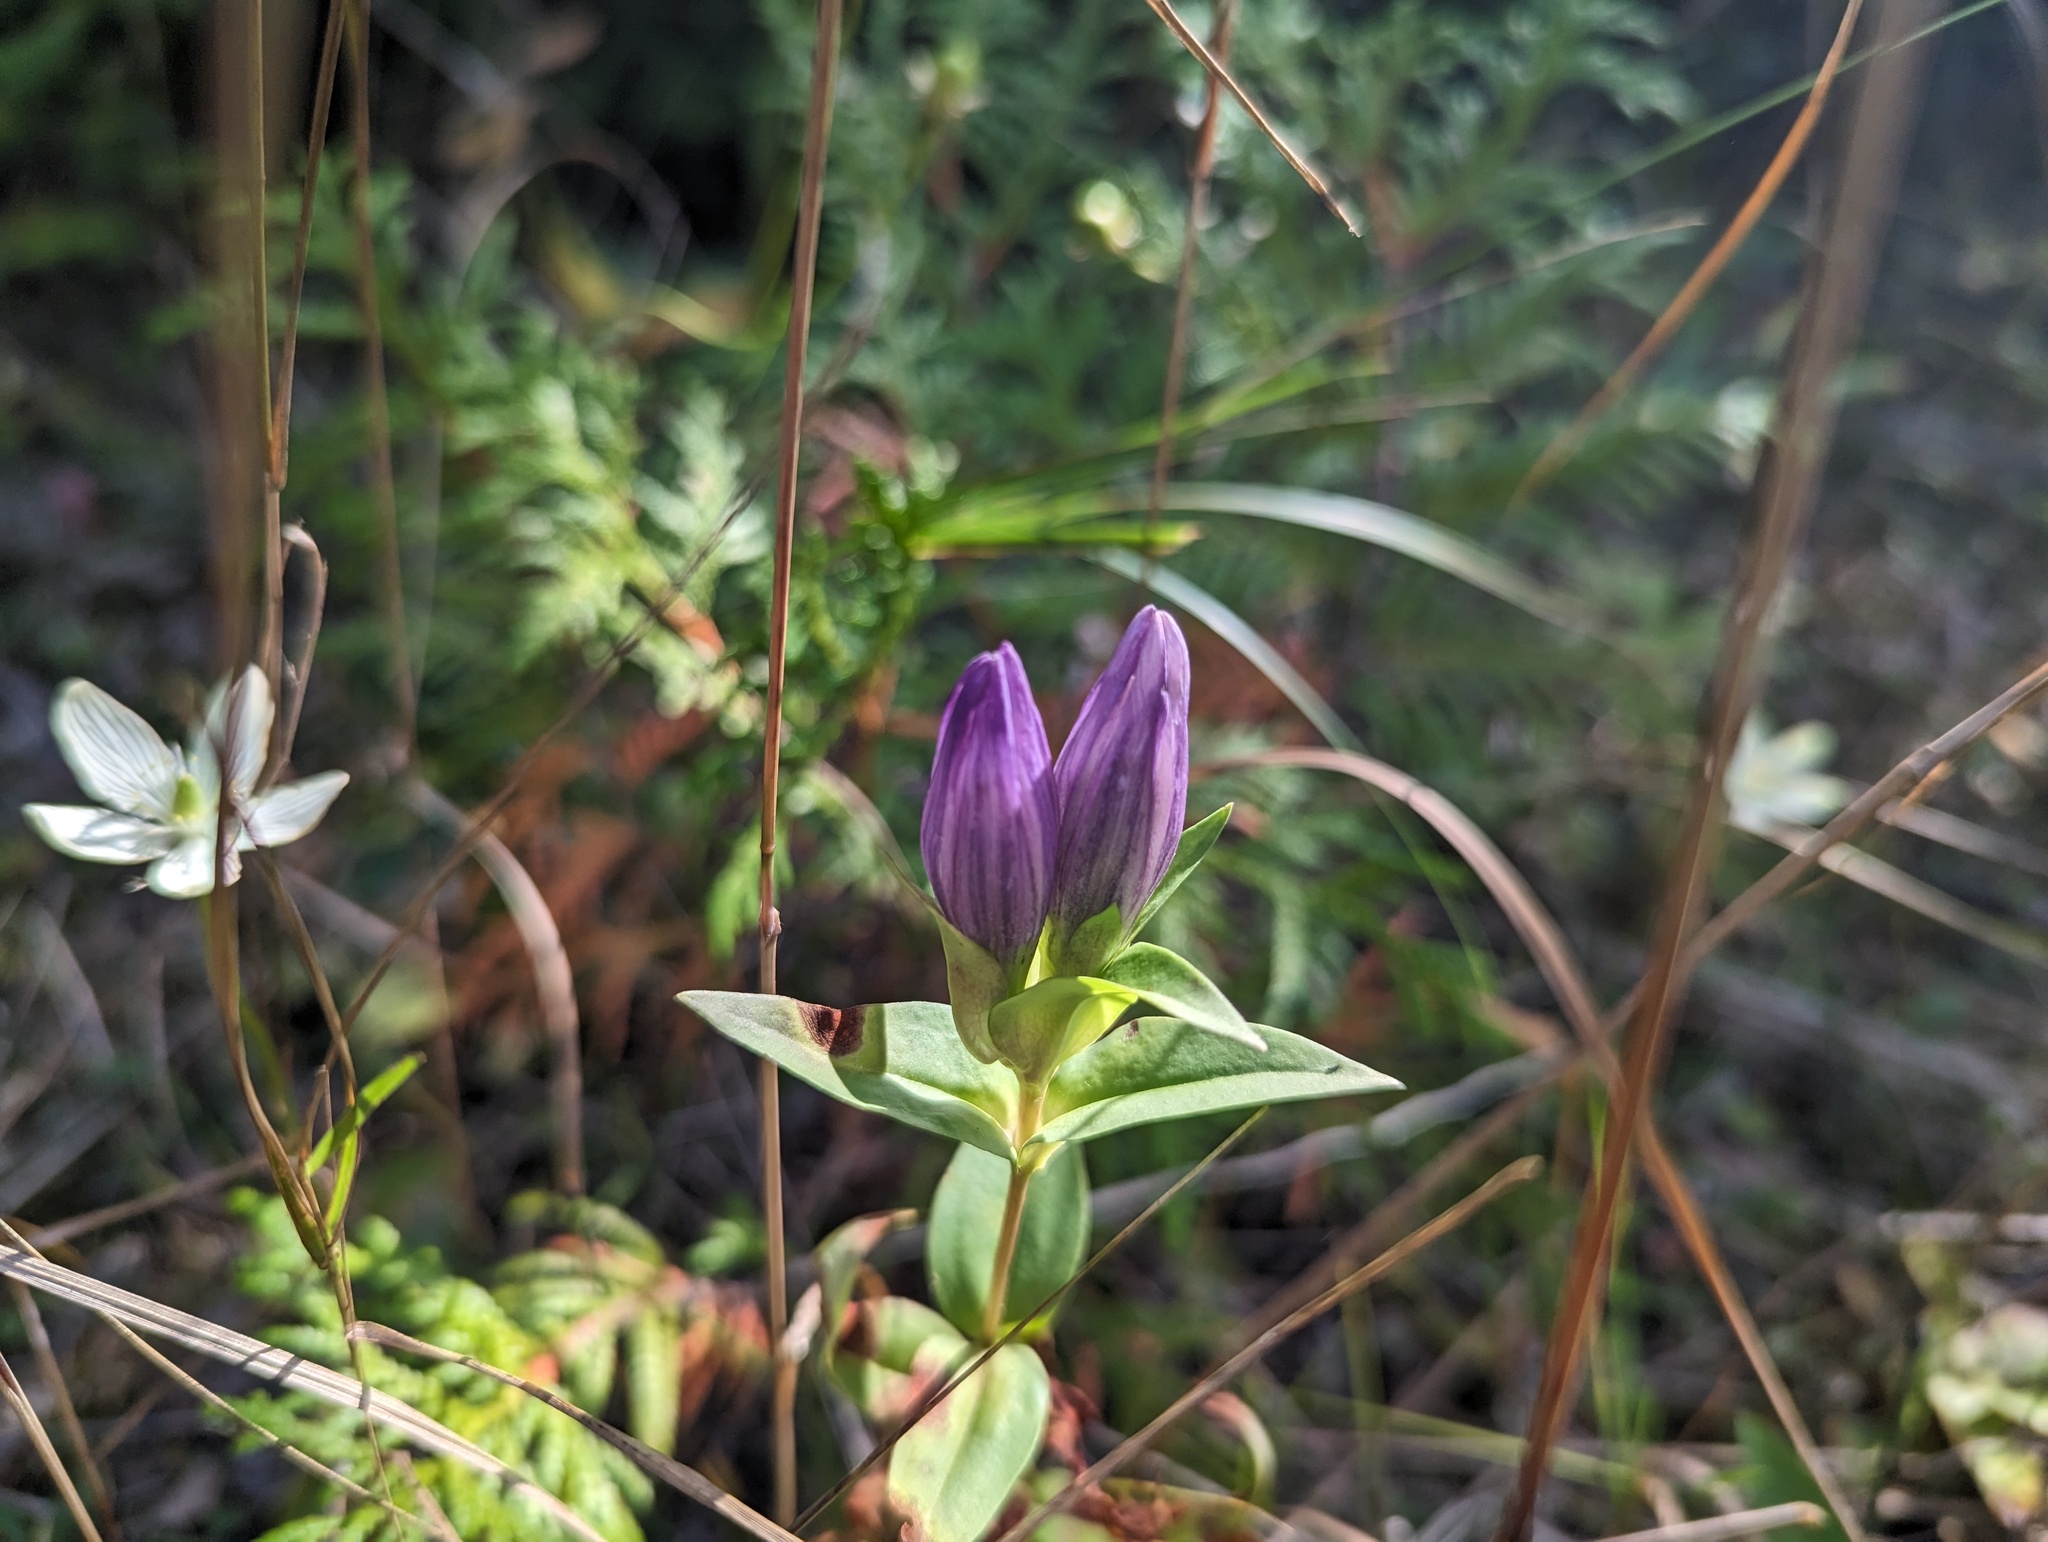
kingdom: Plantae
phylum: Tracheophyta
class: Magnoliopsida
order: Gentianales
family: Gentianaceae
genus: Gentiana
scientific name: Gentiana rubricaulis
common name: Purple-stemmed gentian
